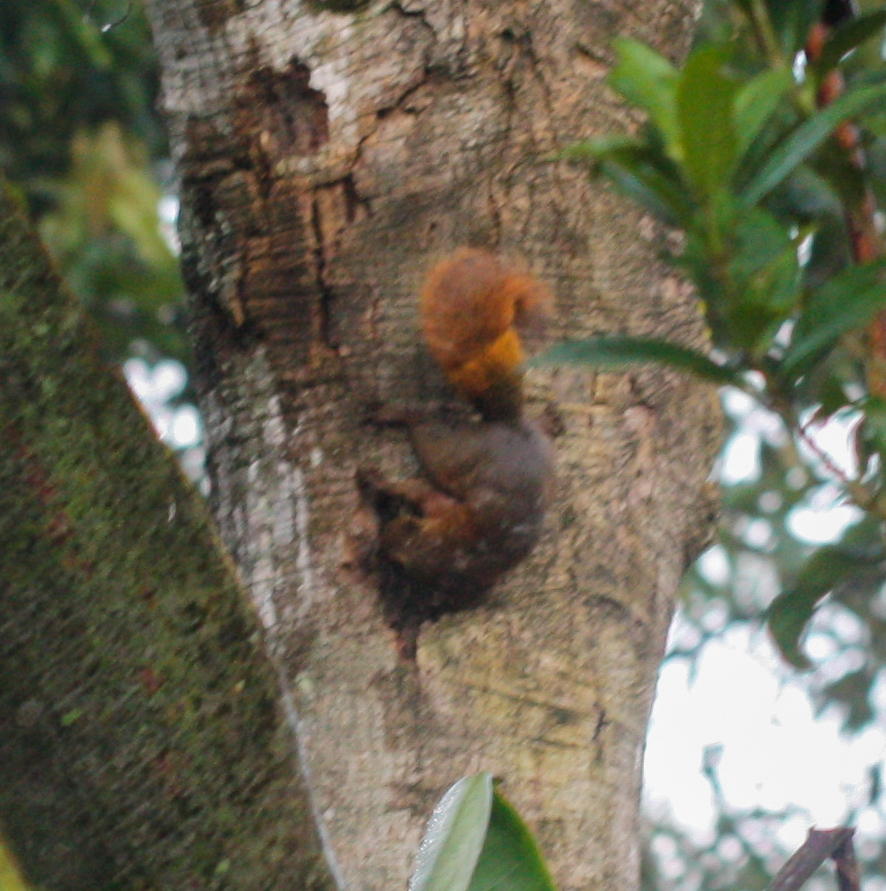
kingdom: Animalia
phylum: Chordata
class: Mammalia
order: Rodentia
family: Sciuridae
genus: Sciurus
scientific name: Sciurus granatensis
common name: Red-tailed squirrel
